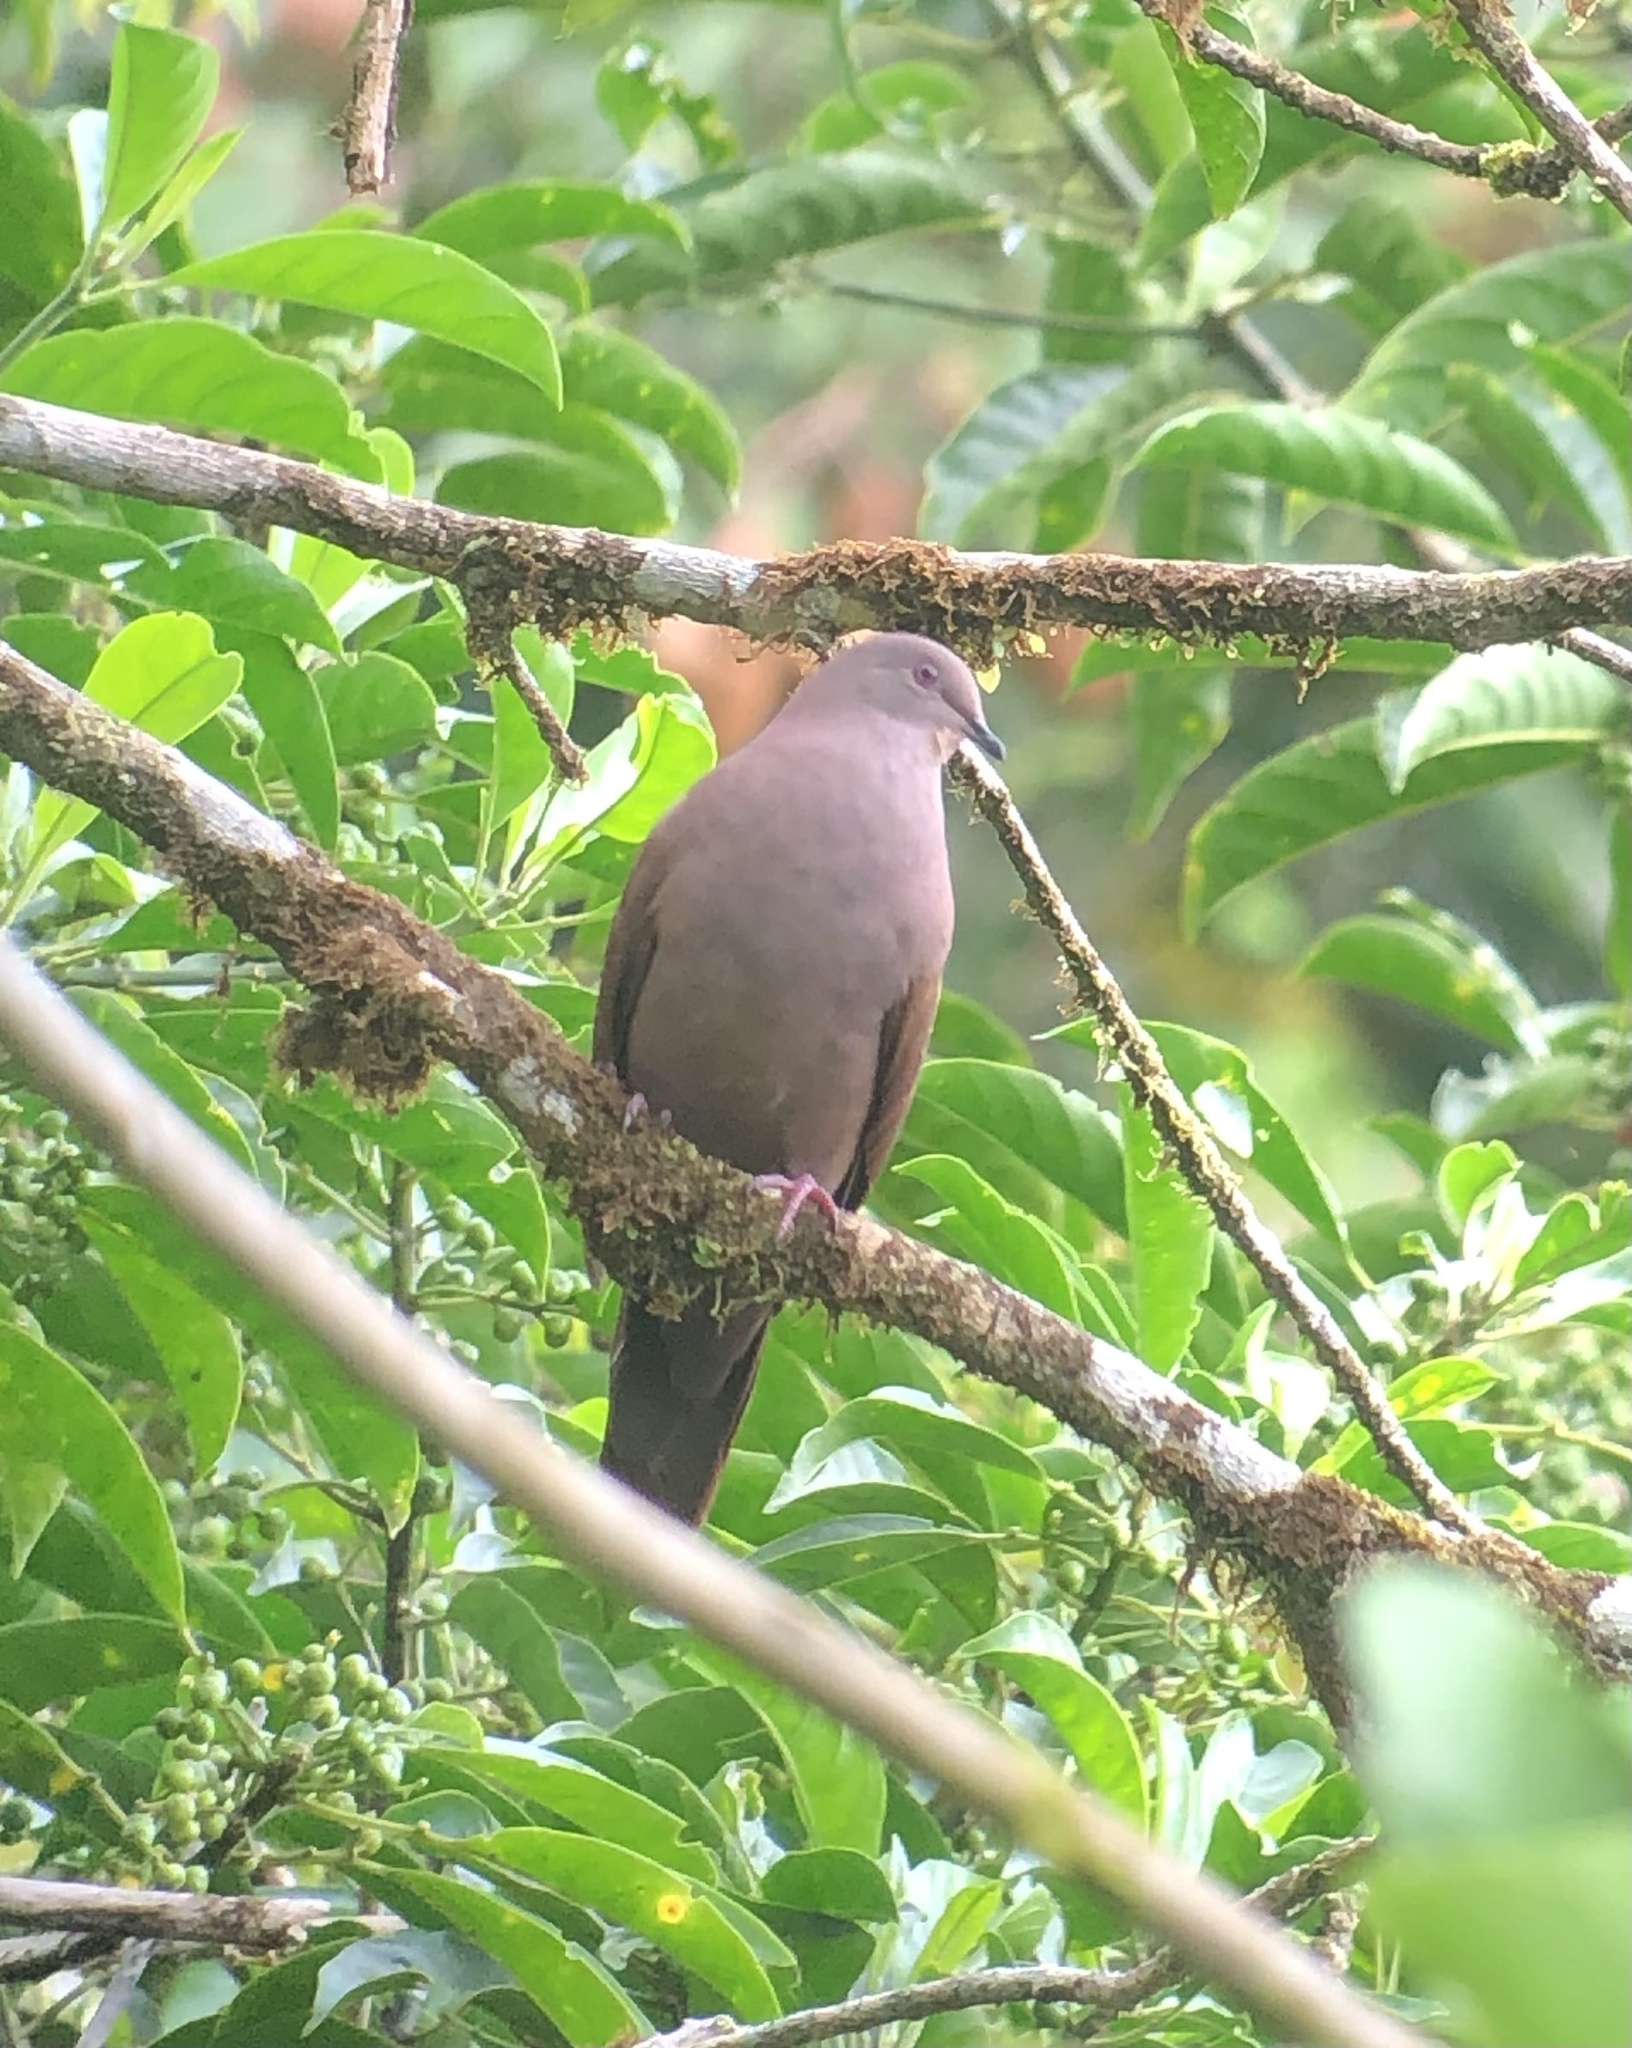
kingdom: Animalia
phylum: Chordata
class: Aves
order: Columbiformes
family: Columbidae
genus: Patagioenas
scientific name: Patagioenas subvinacea
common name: Ruddy pigeon
